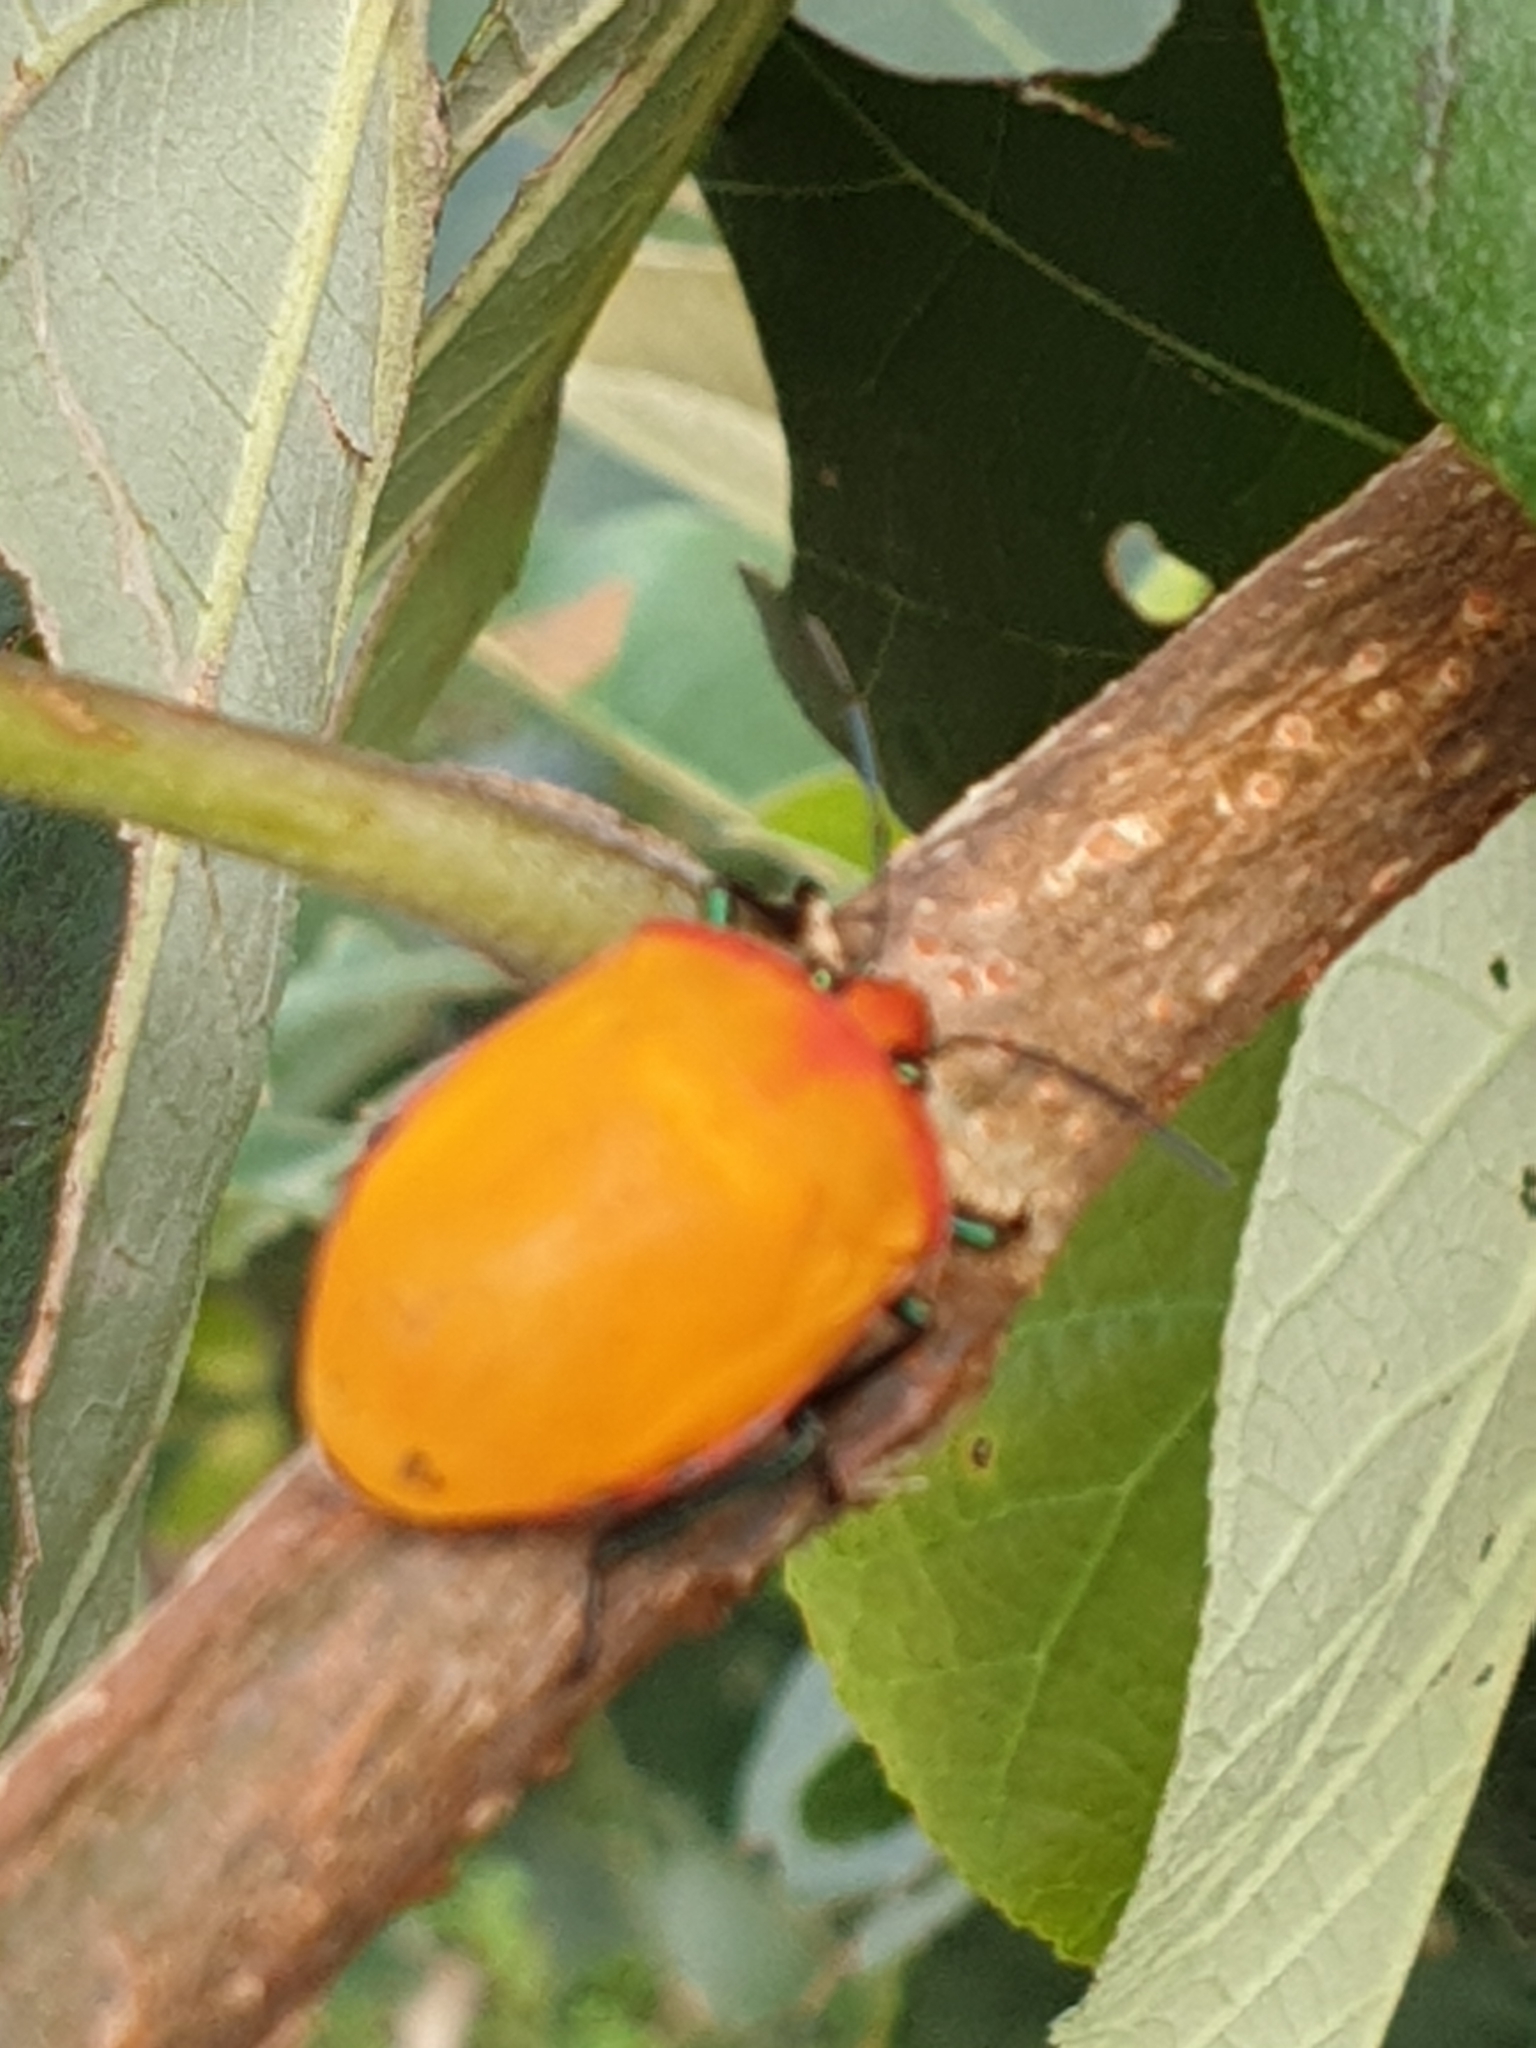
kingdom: Animalia
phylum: Arthropoda
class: Insecta
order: Hemiptera
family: Scutelleridae
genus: Tectocoris
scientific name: Tectocoris diophthalmus
